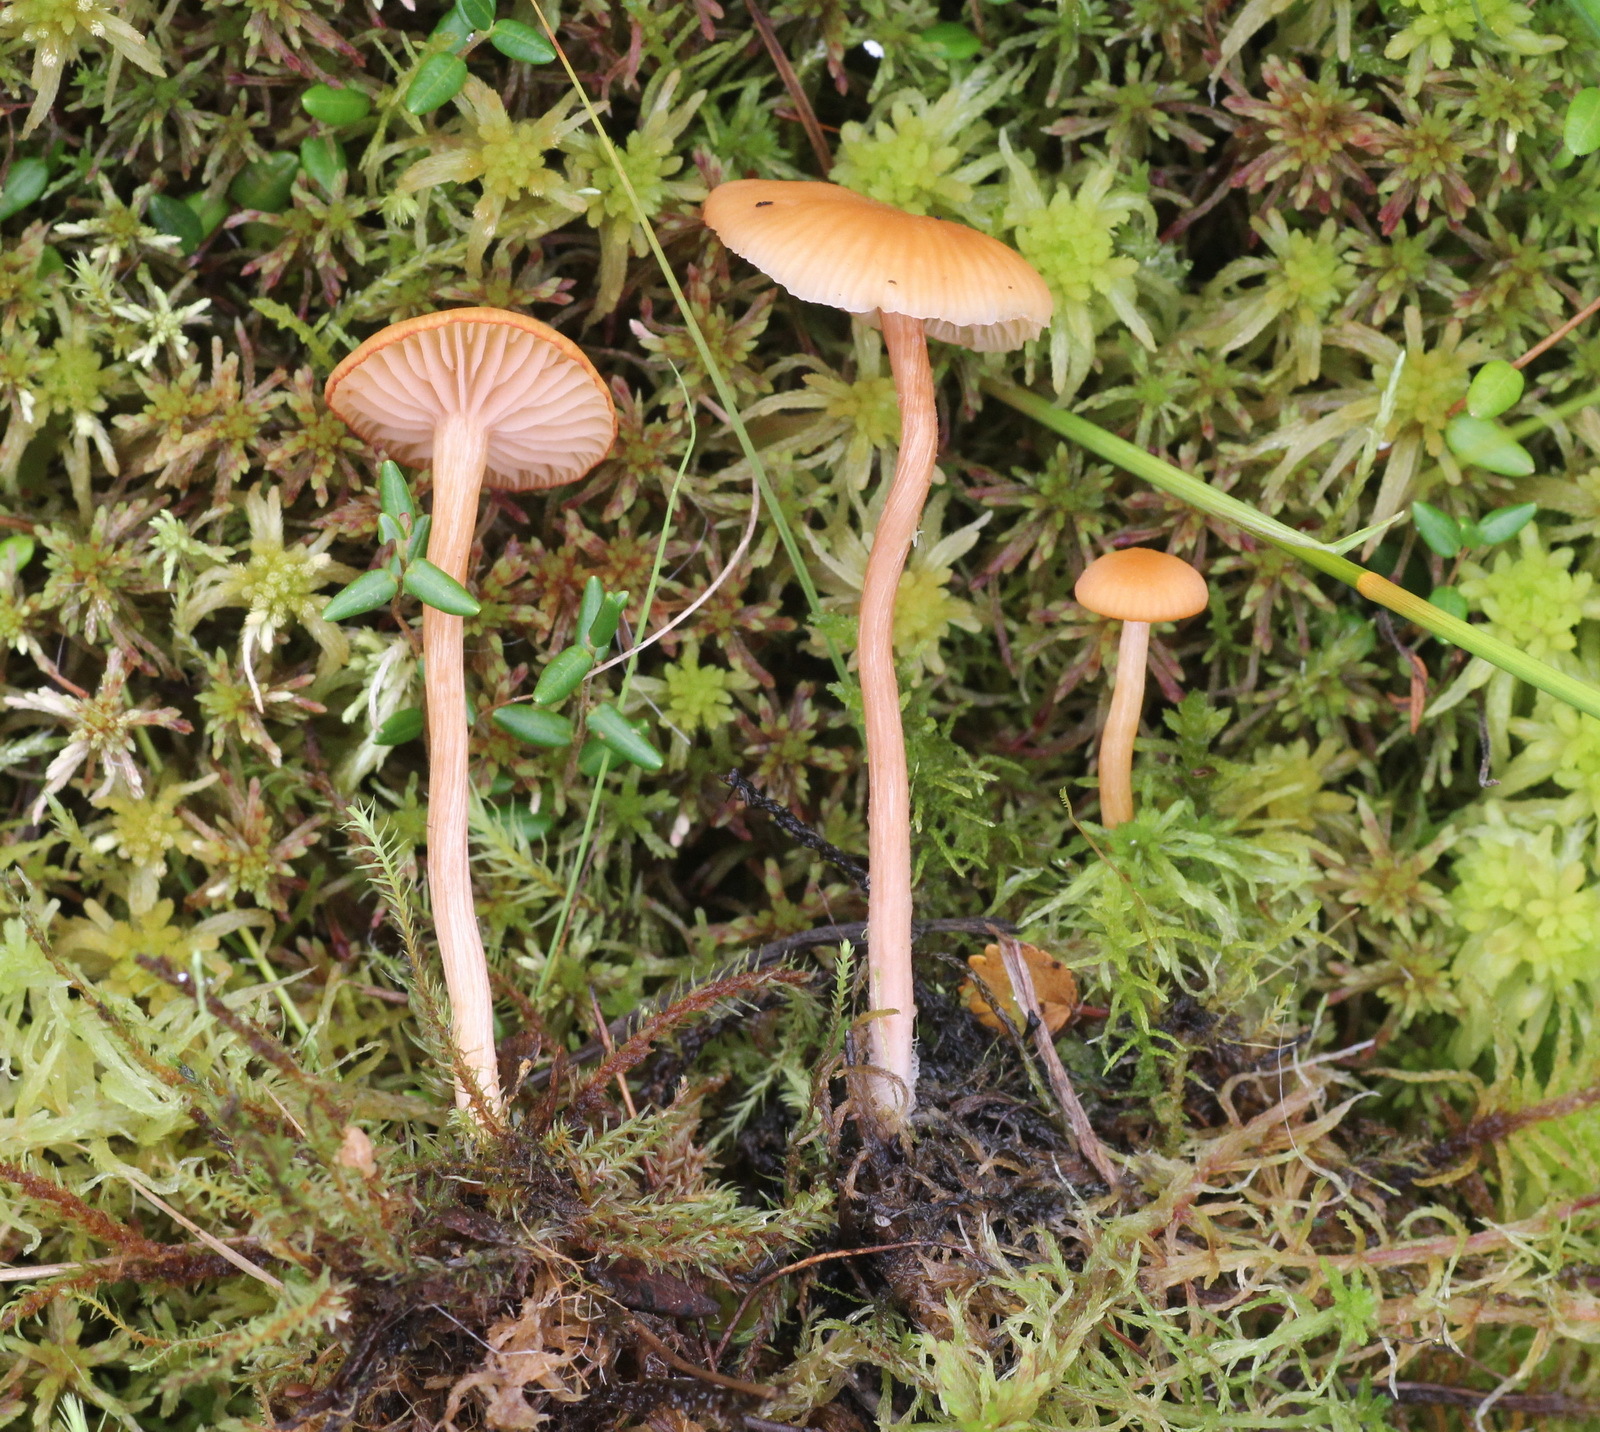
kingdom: Fungi
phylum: Basidiomycota
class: Agaricomycetes
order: Agaricales
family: Hydnangiaceae
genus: Laccaria
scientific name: Laccaria laccata
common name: Deceiver
